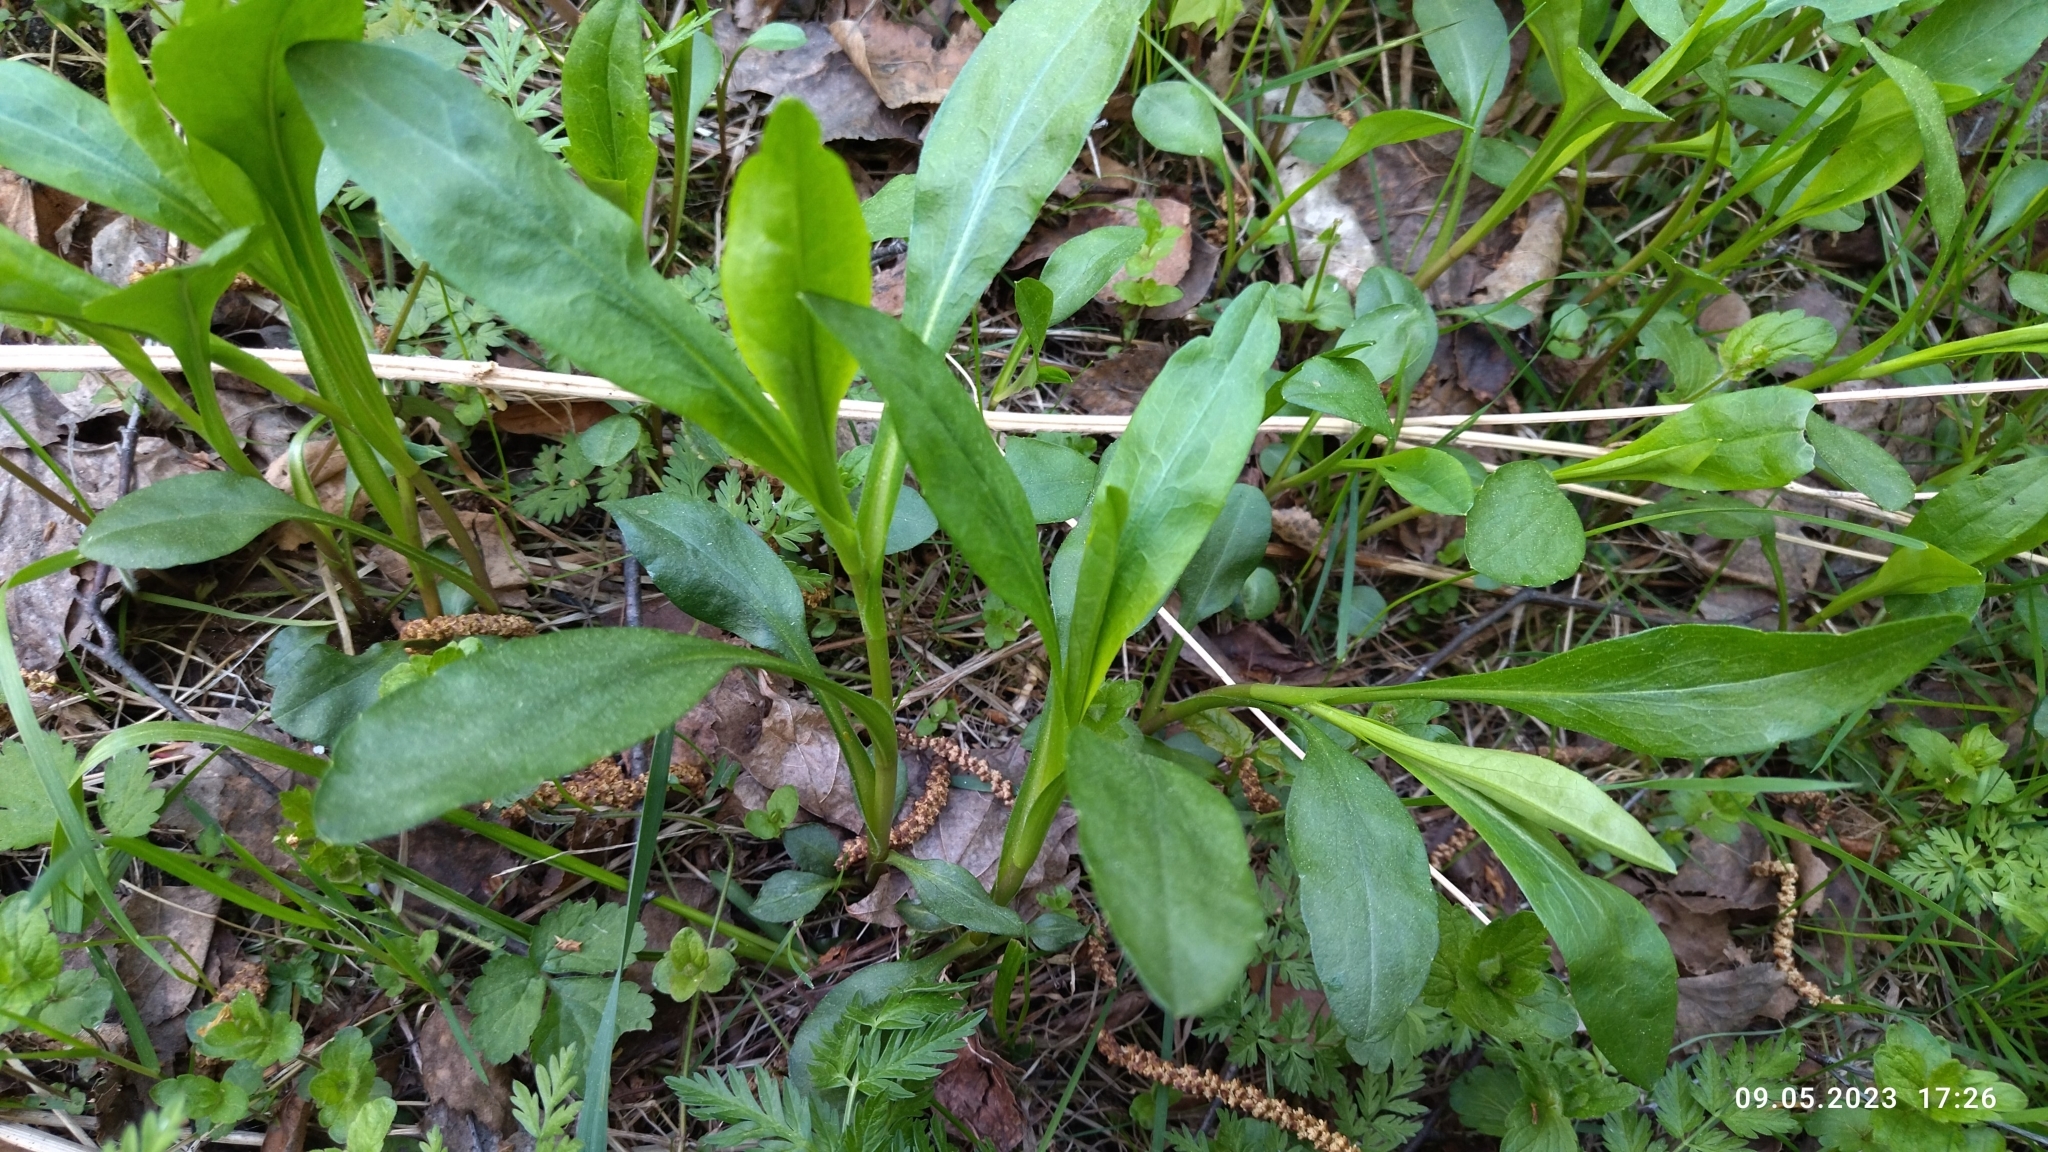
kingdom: Plantae
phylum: Tracheophyta
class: Magnoliopsida
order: Asterales
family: Asteraceae
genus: Solidago
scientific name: Solidago virgaurea
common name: Goldenrod
